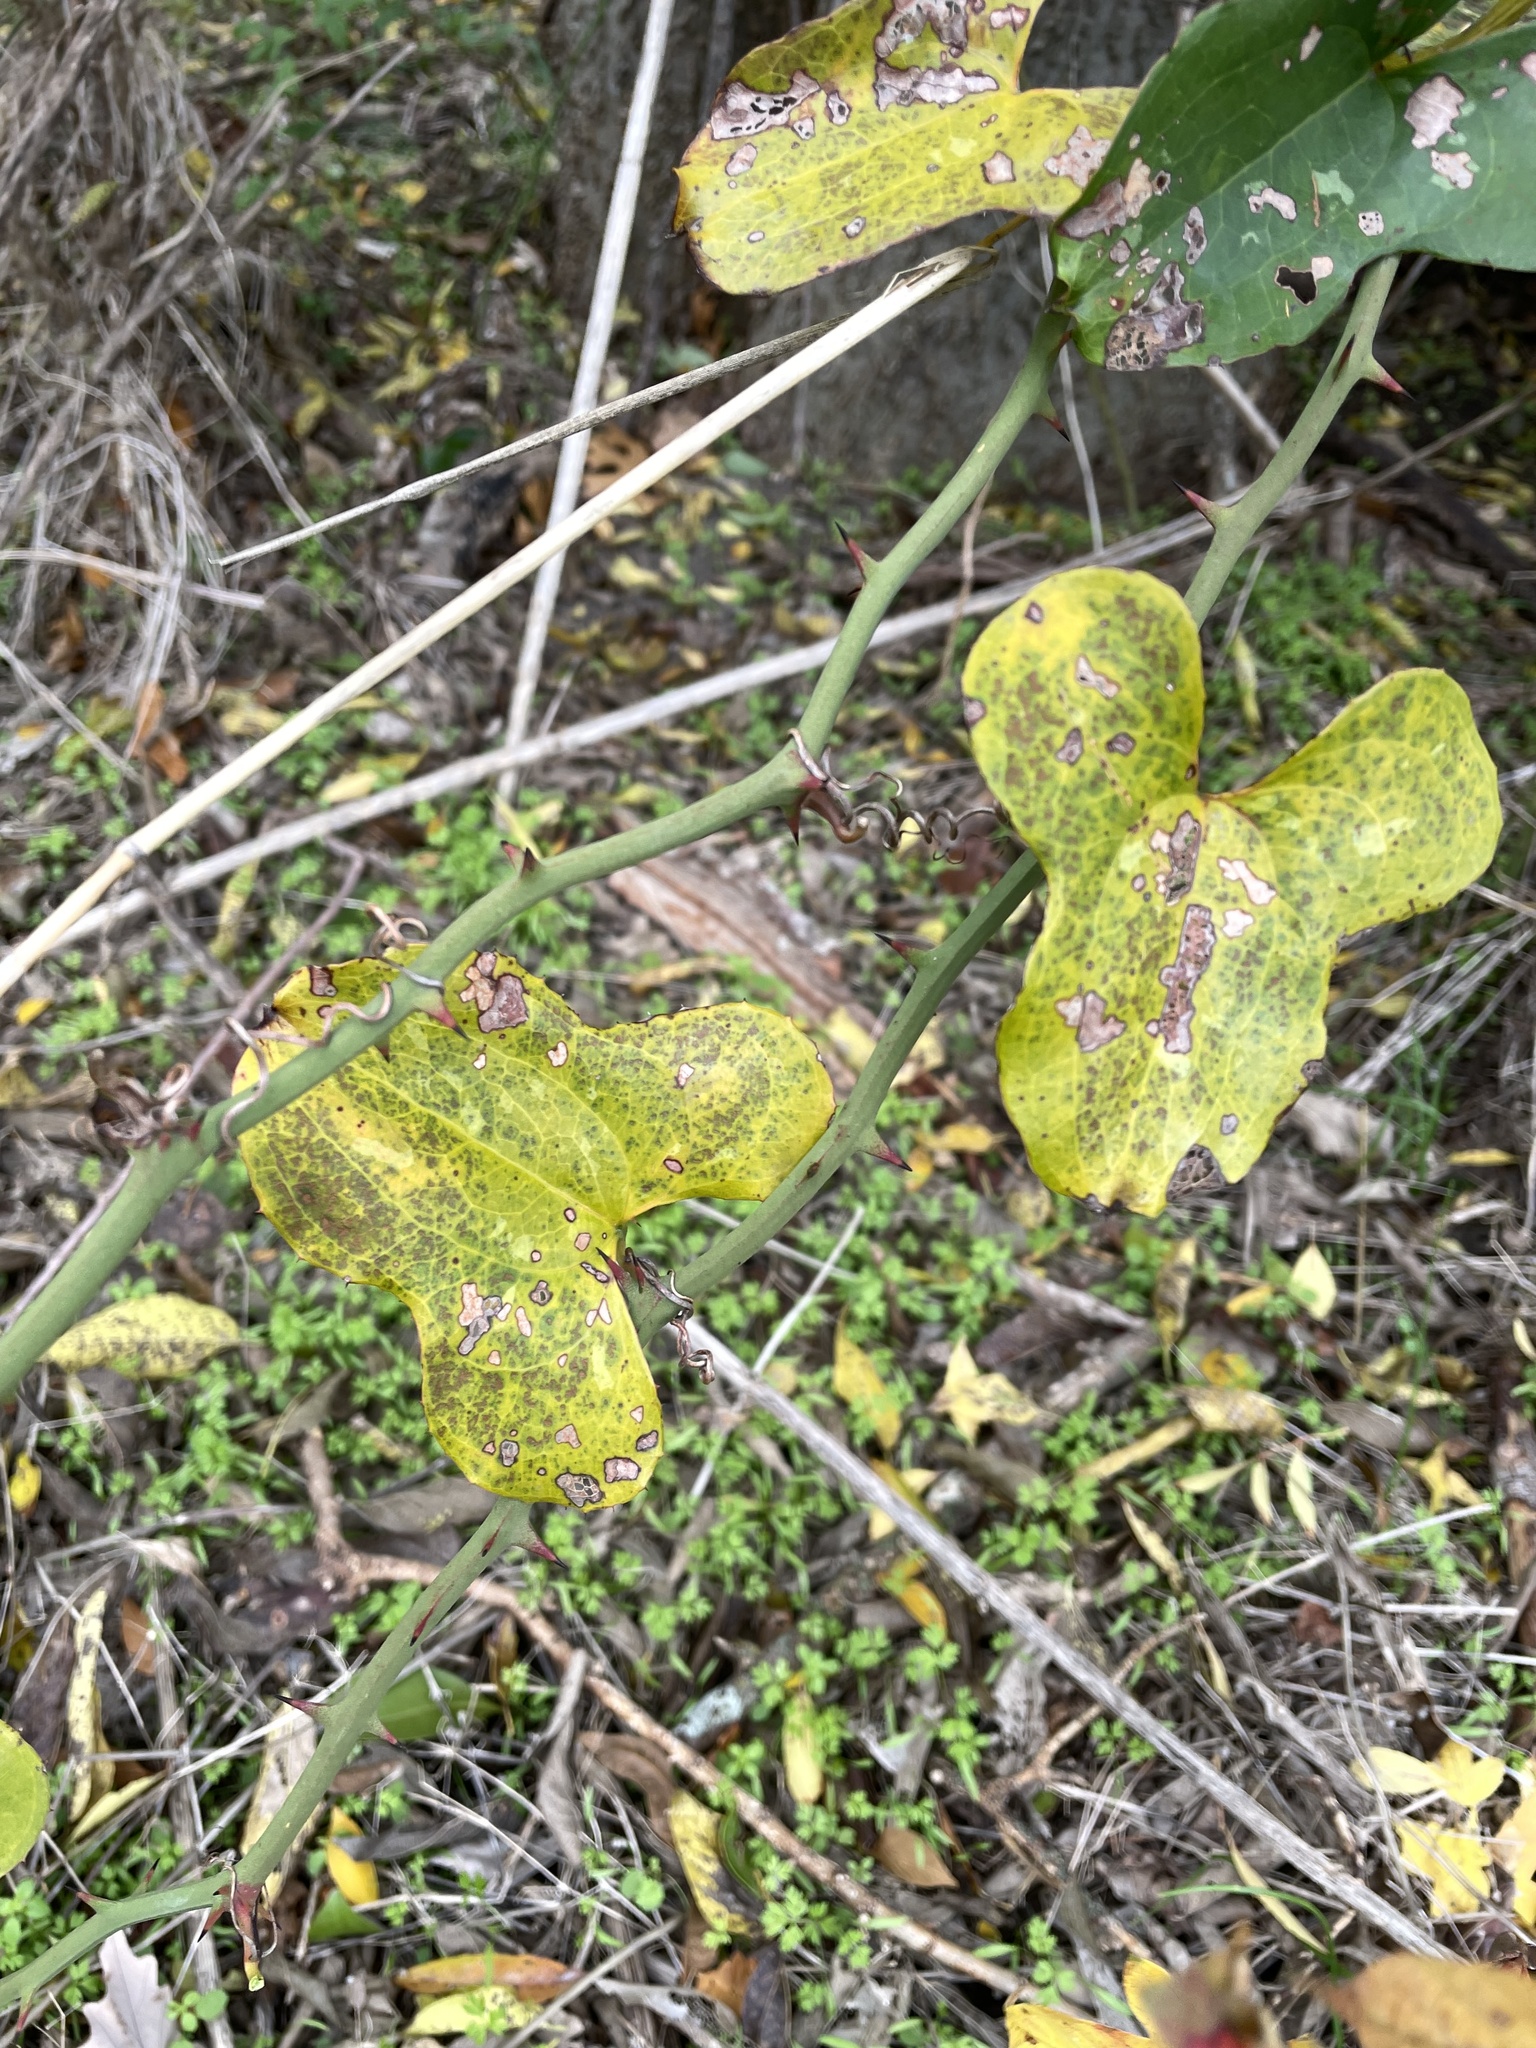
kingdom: Plantae
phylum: Tracheophyta
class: Liliopsida
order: Liliales
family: Smilacaceae
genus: Smilax
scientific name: Smilax bona-nox
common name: Catbrier
